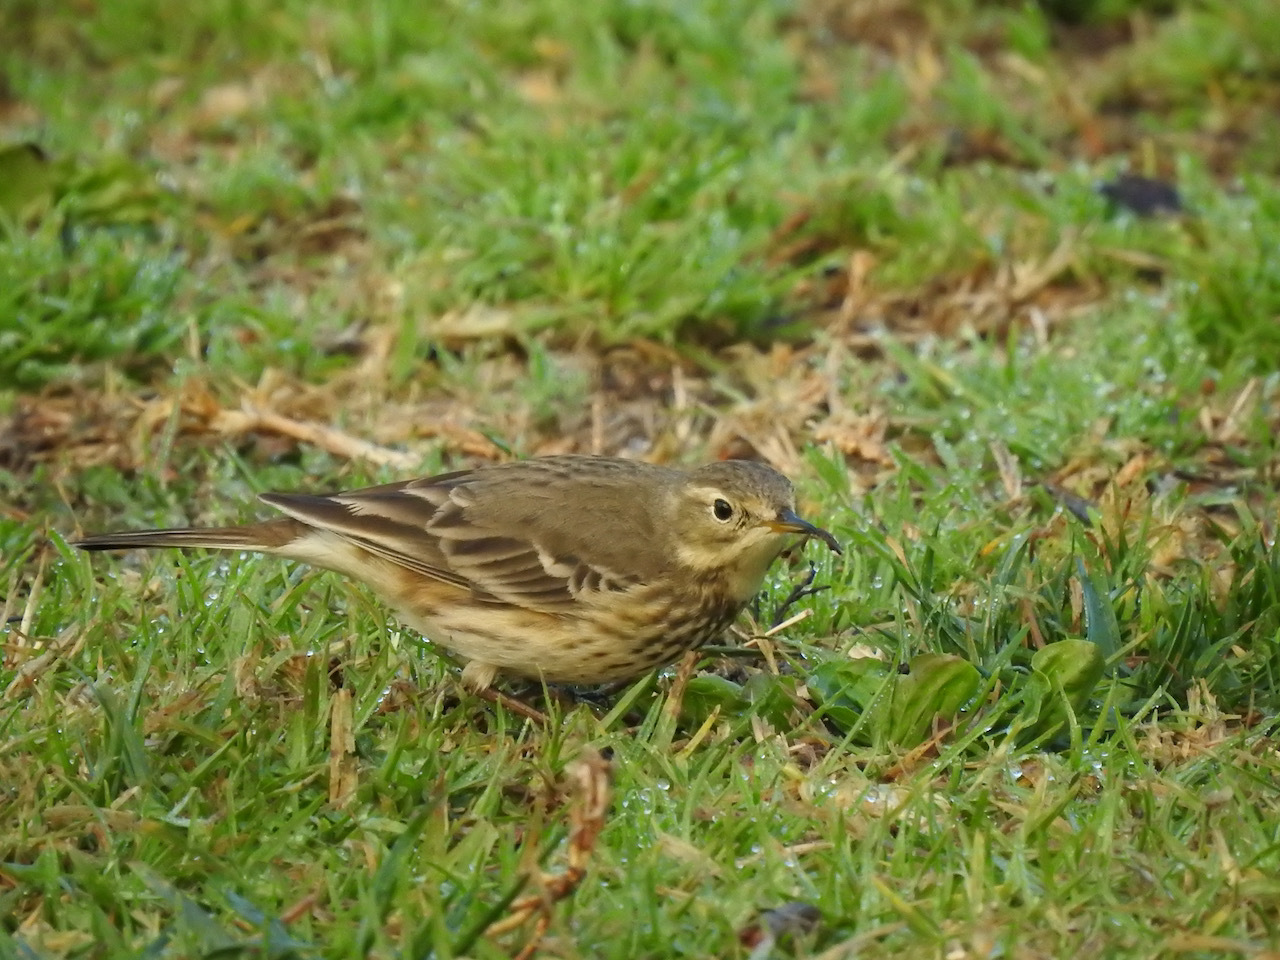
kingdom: Animalia
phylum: Chordata
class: Aves
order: Passeriformes
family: Motacillidae
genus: Anthus
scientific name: Anthus rubescens
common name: Buff-bellied pipit
